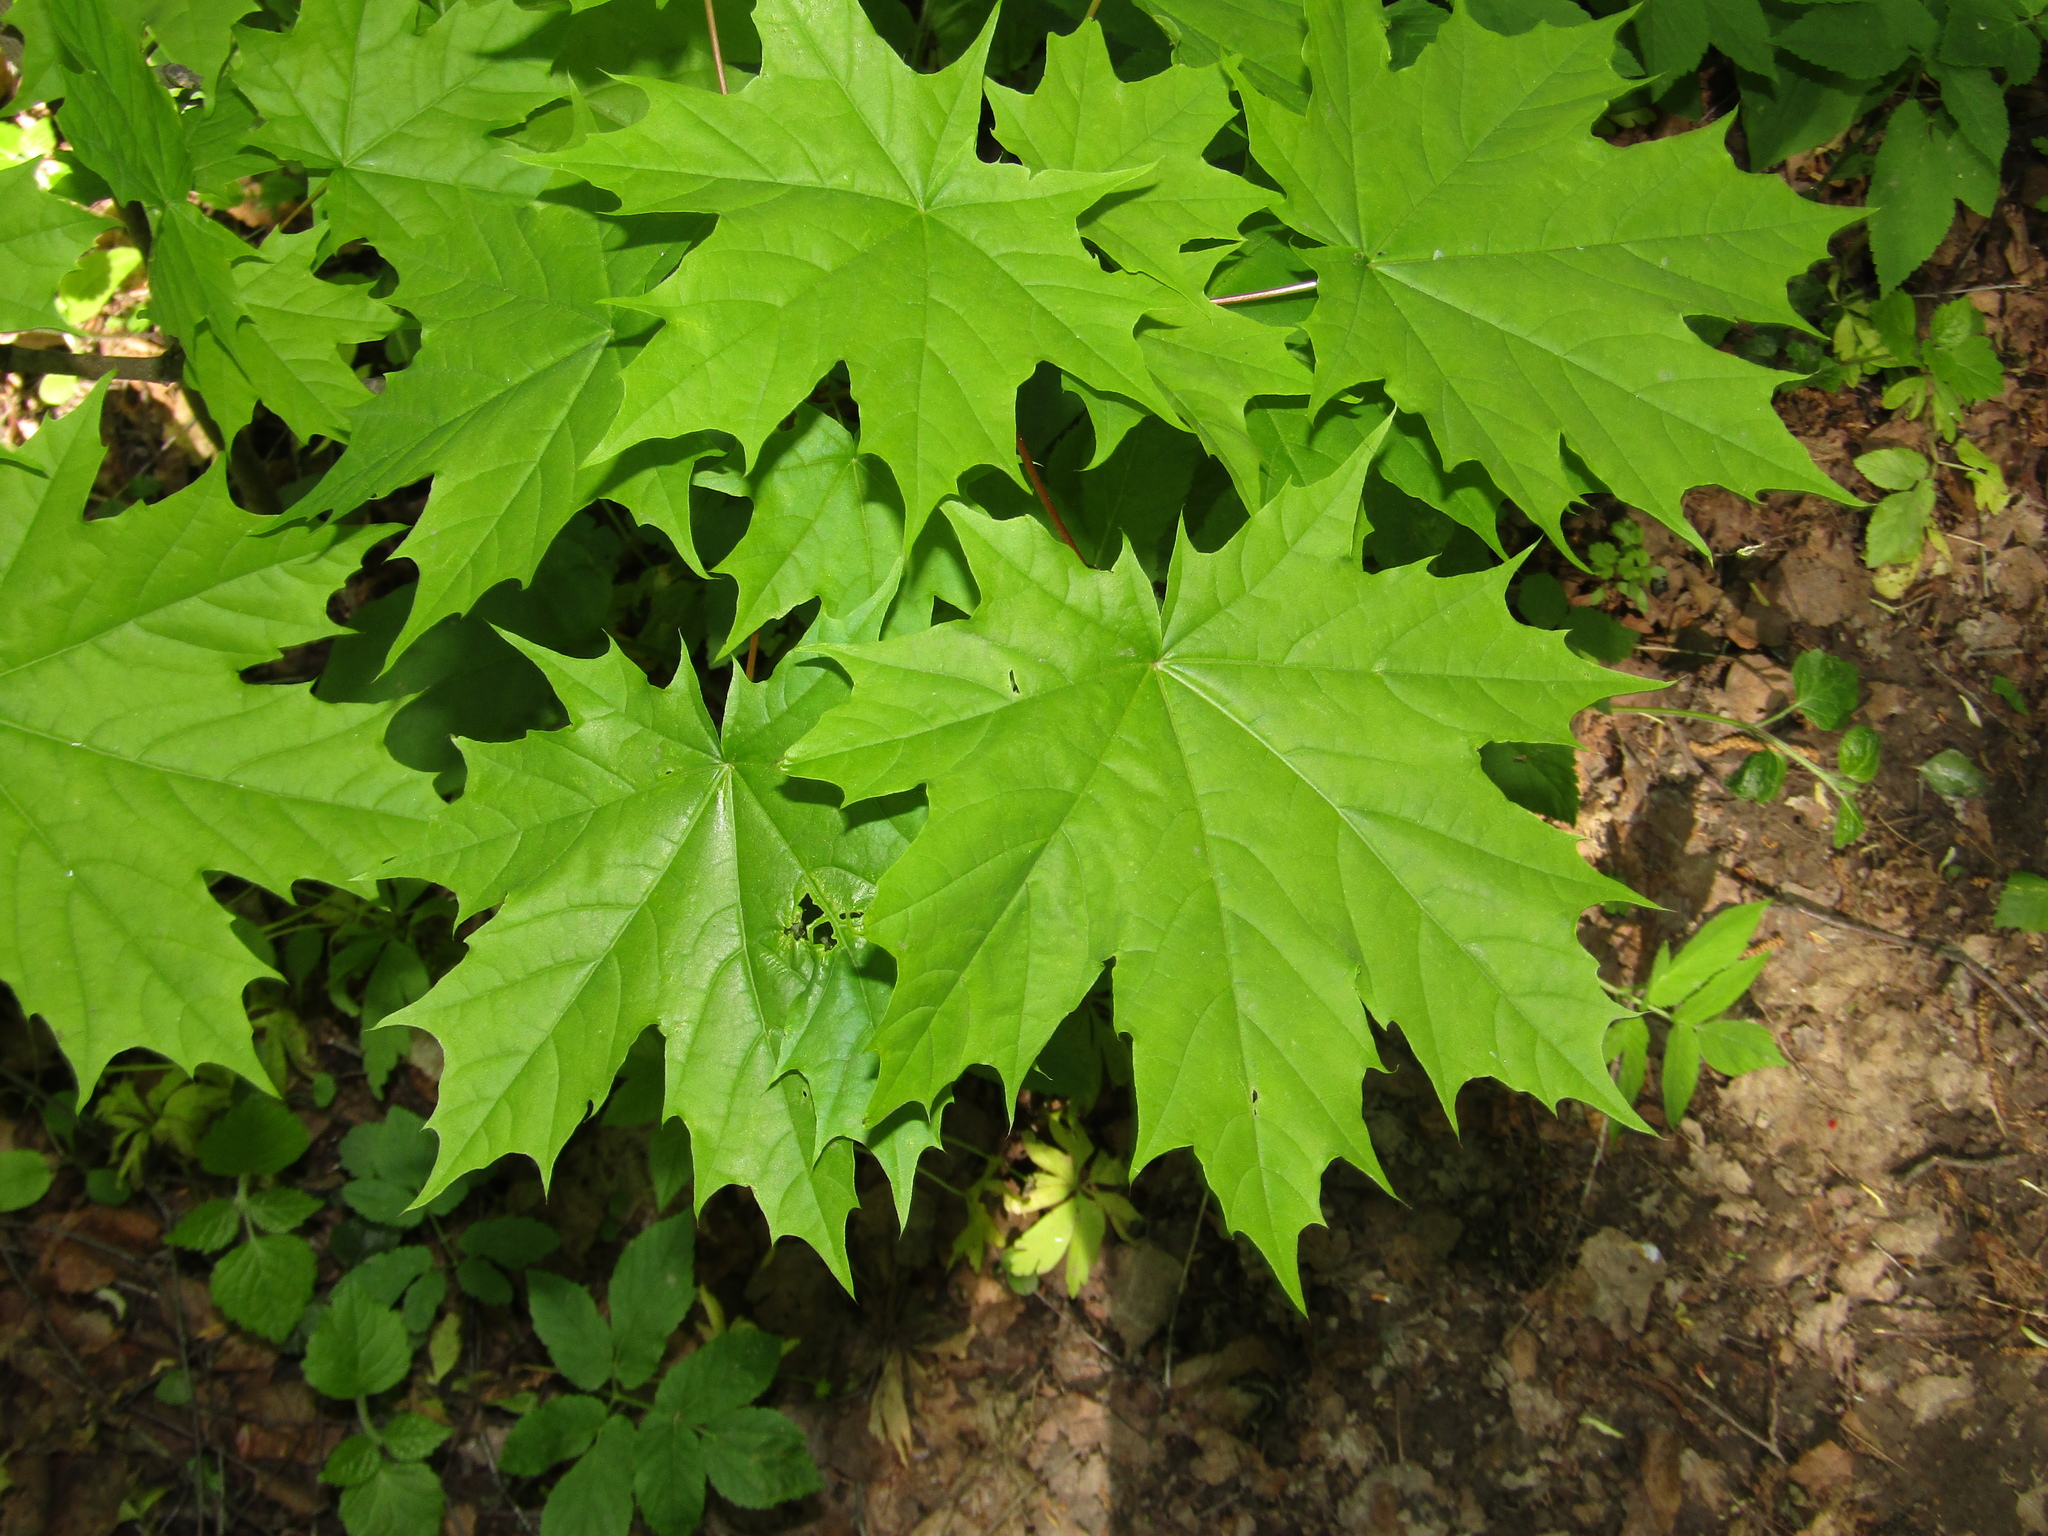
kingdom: Plantae
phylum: Tracheophyta
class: Magnoliopsida
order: Sapindales
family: Sapindaceae
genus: Acer
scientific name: Acer platanoides
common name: Norway maple
